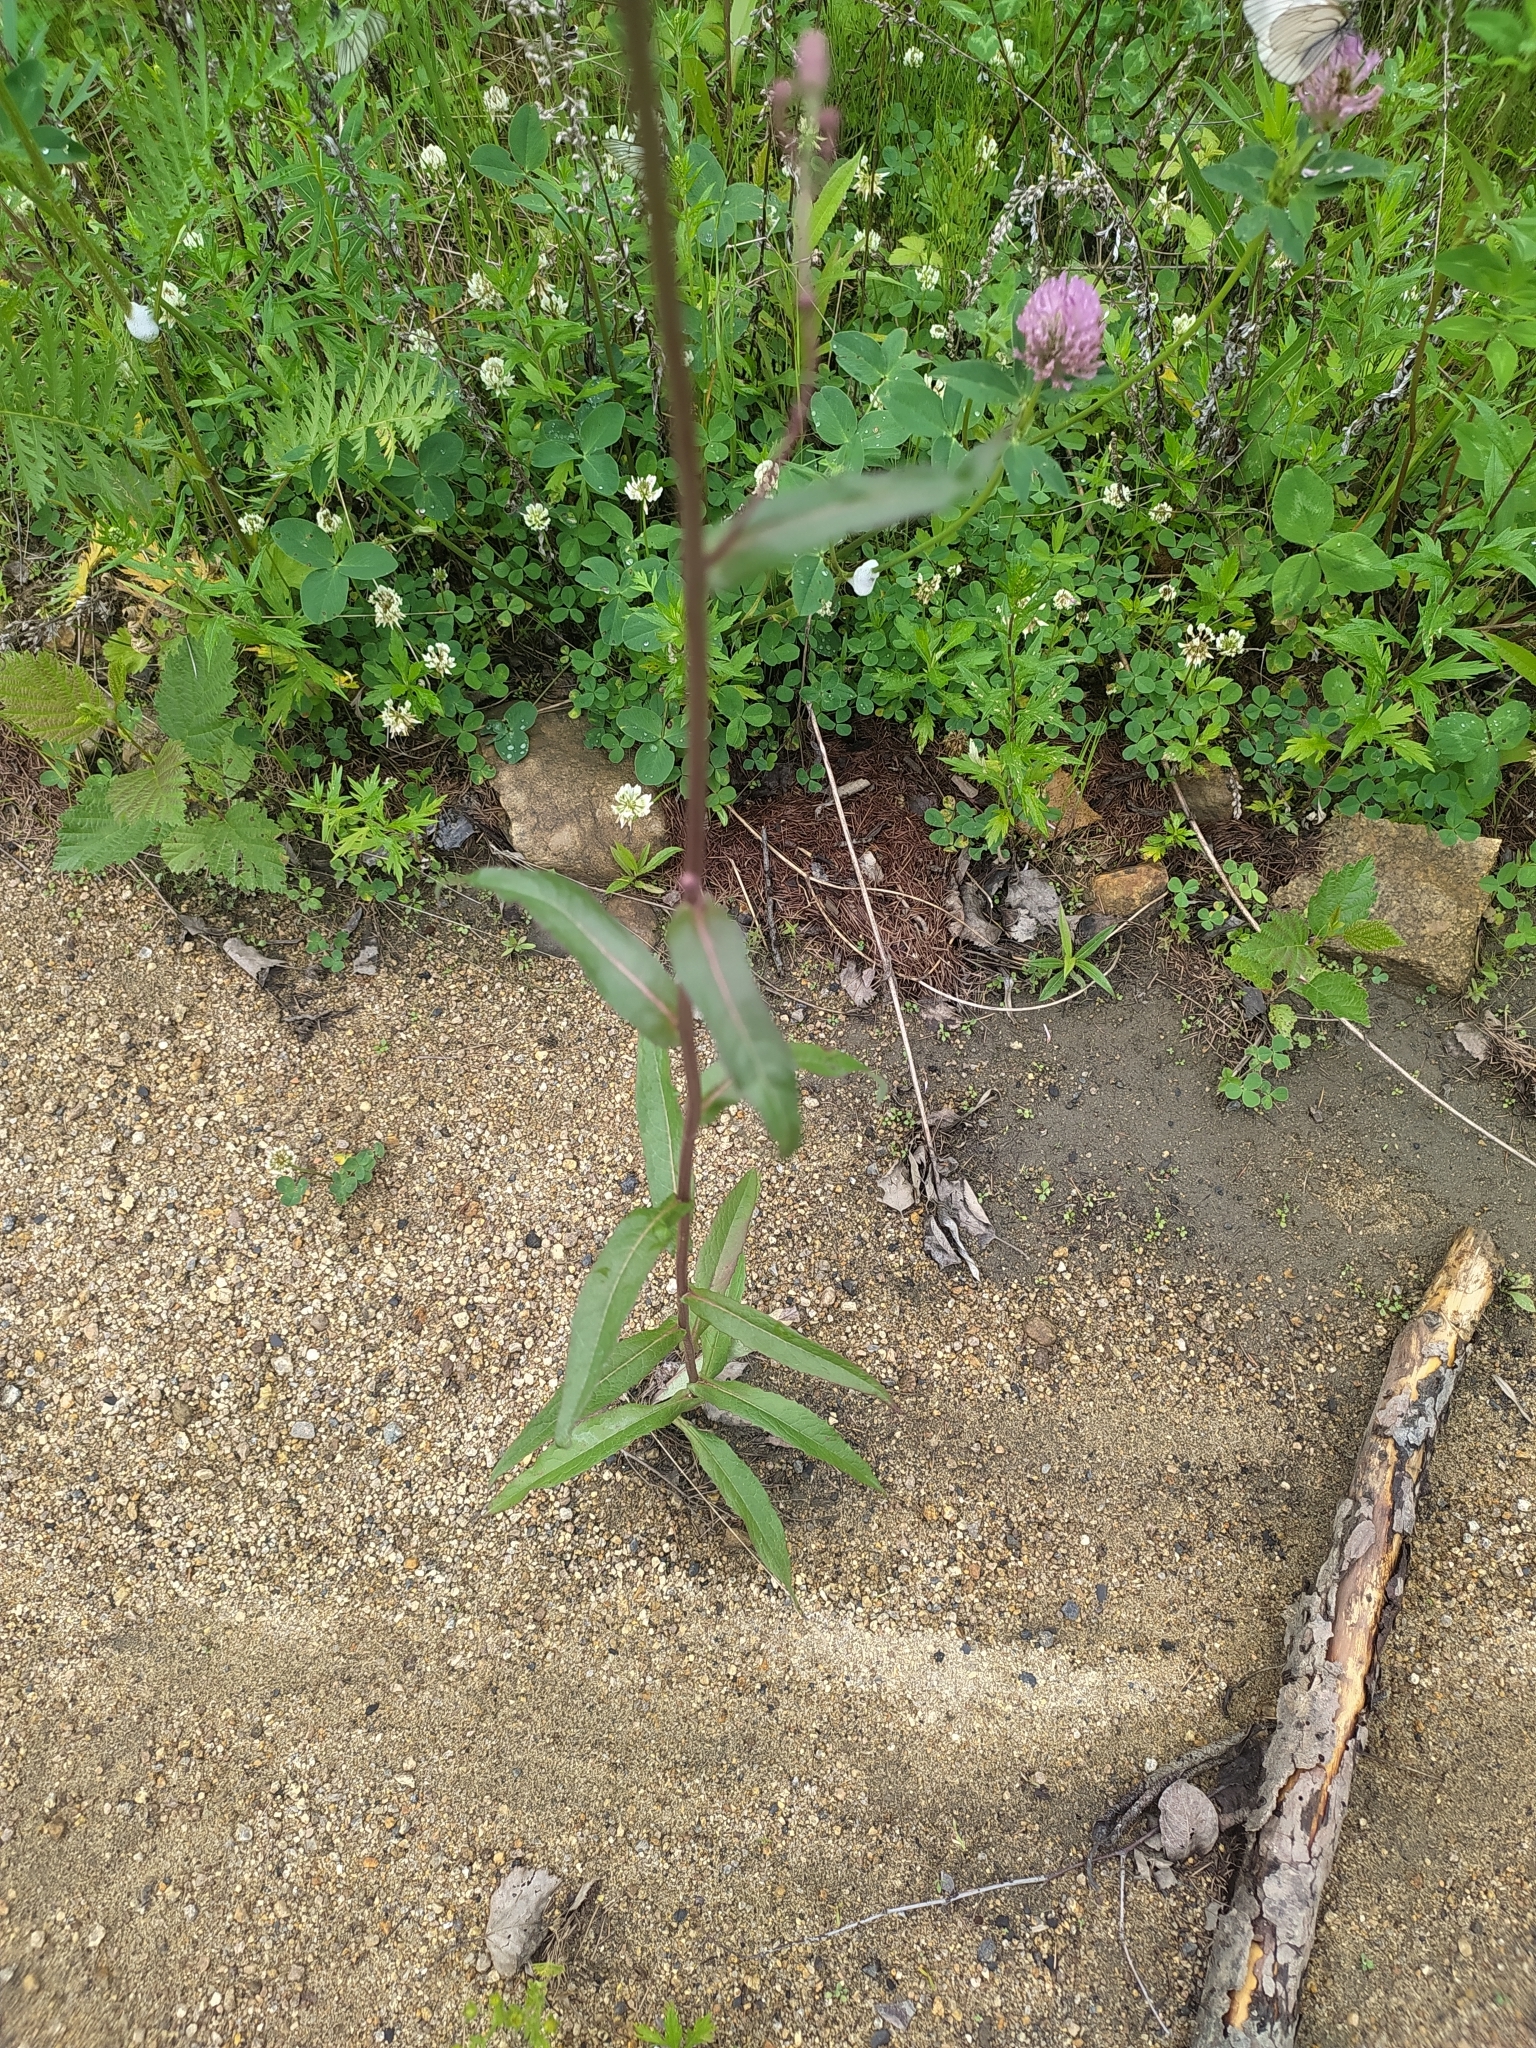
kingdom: Plantae
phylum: Tracheophyta
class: Magnoliopsida
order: Asterales
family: Asteraceae
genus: Lactuca
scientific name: Lactuca sibirica
